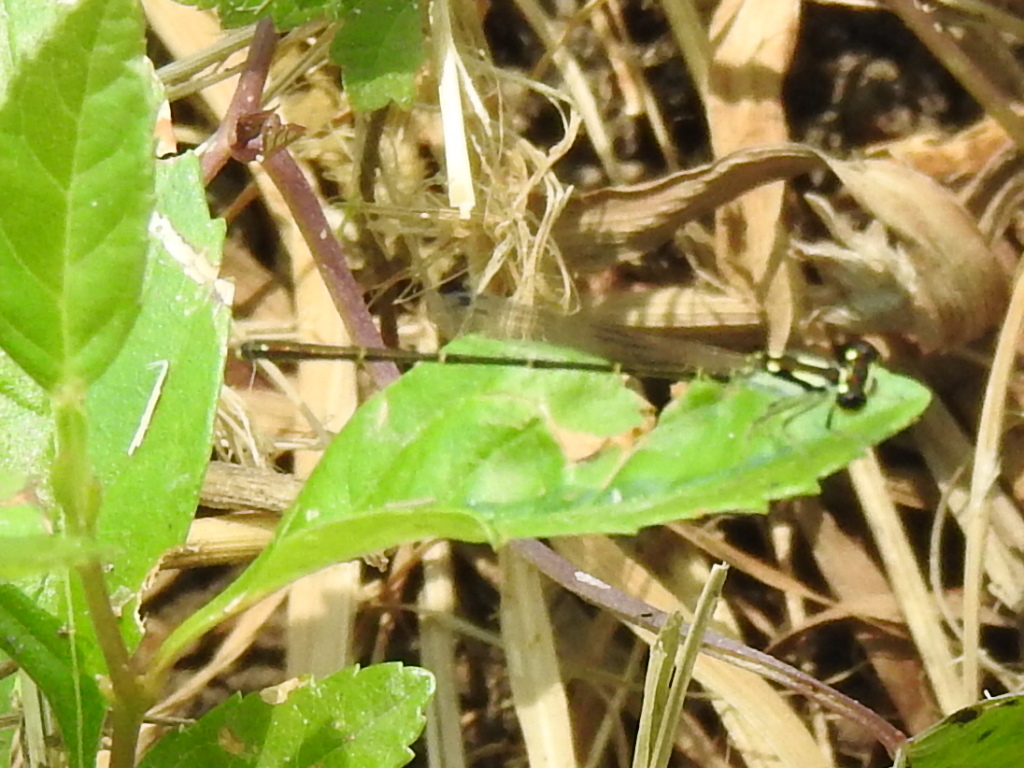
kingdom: Animalia
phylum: Arthropoda
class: Insecta
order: Odonata
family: Coenagrionidae
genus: Ischnura
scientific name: Ischnura posita
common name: Fragile forktail
